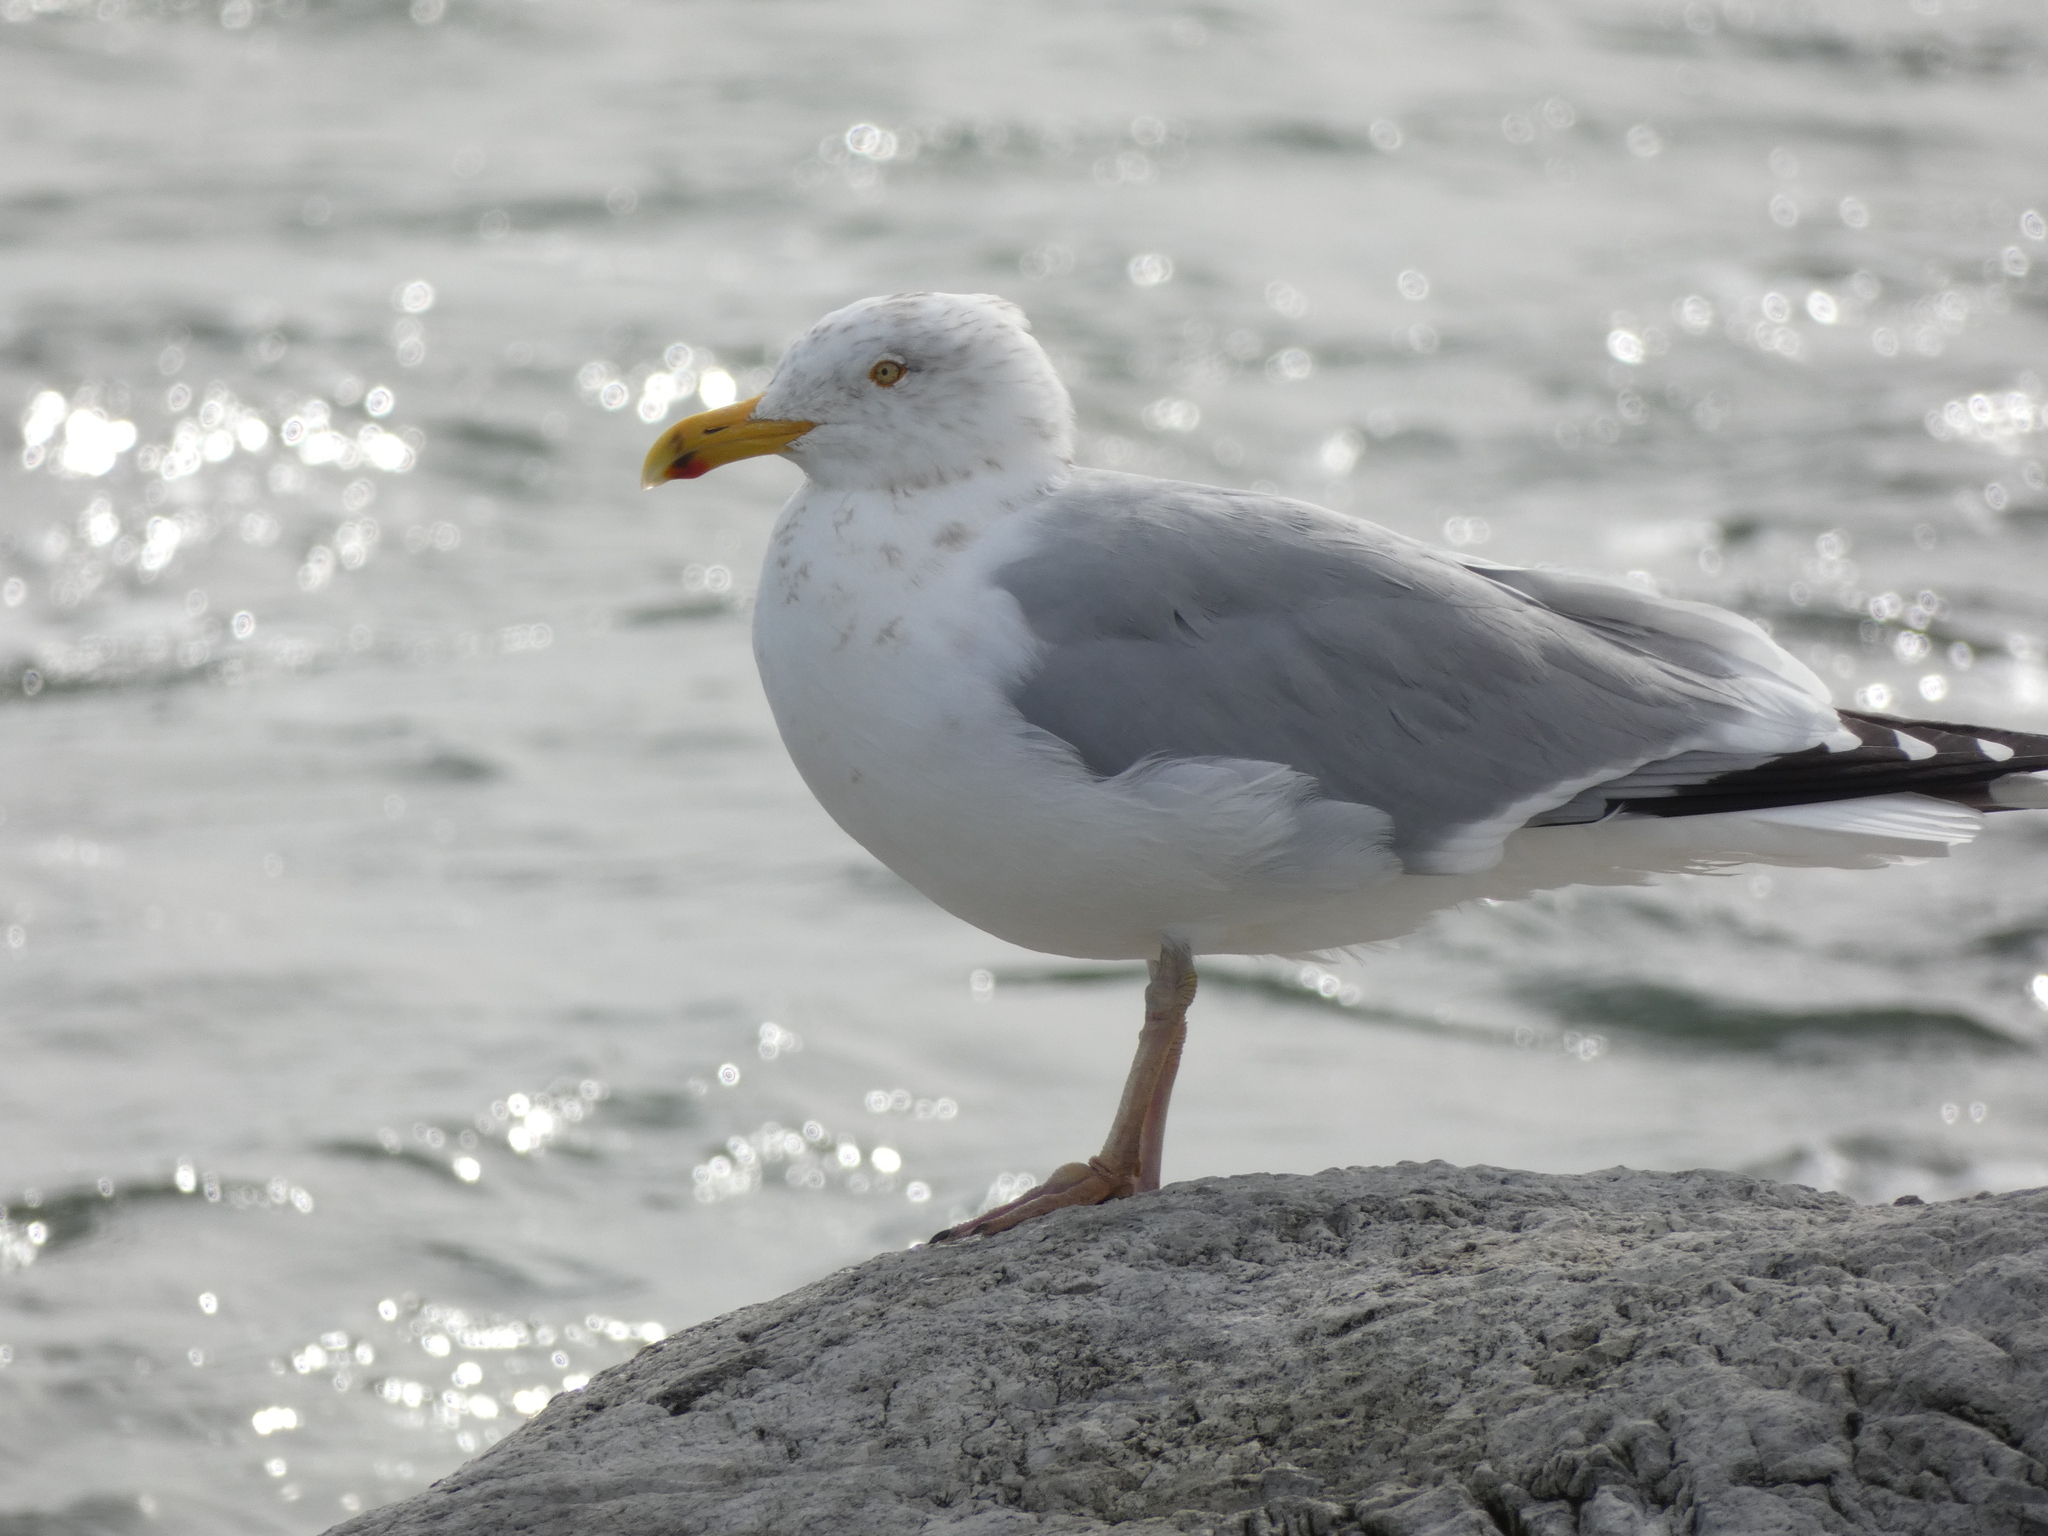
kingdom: Animalia
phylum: Chordata
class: Aves
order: Charadriiformes
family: Laridae
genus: Larus
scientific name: Larus argentatus
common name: Herring gull
